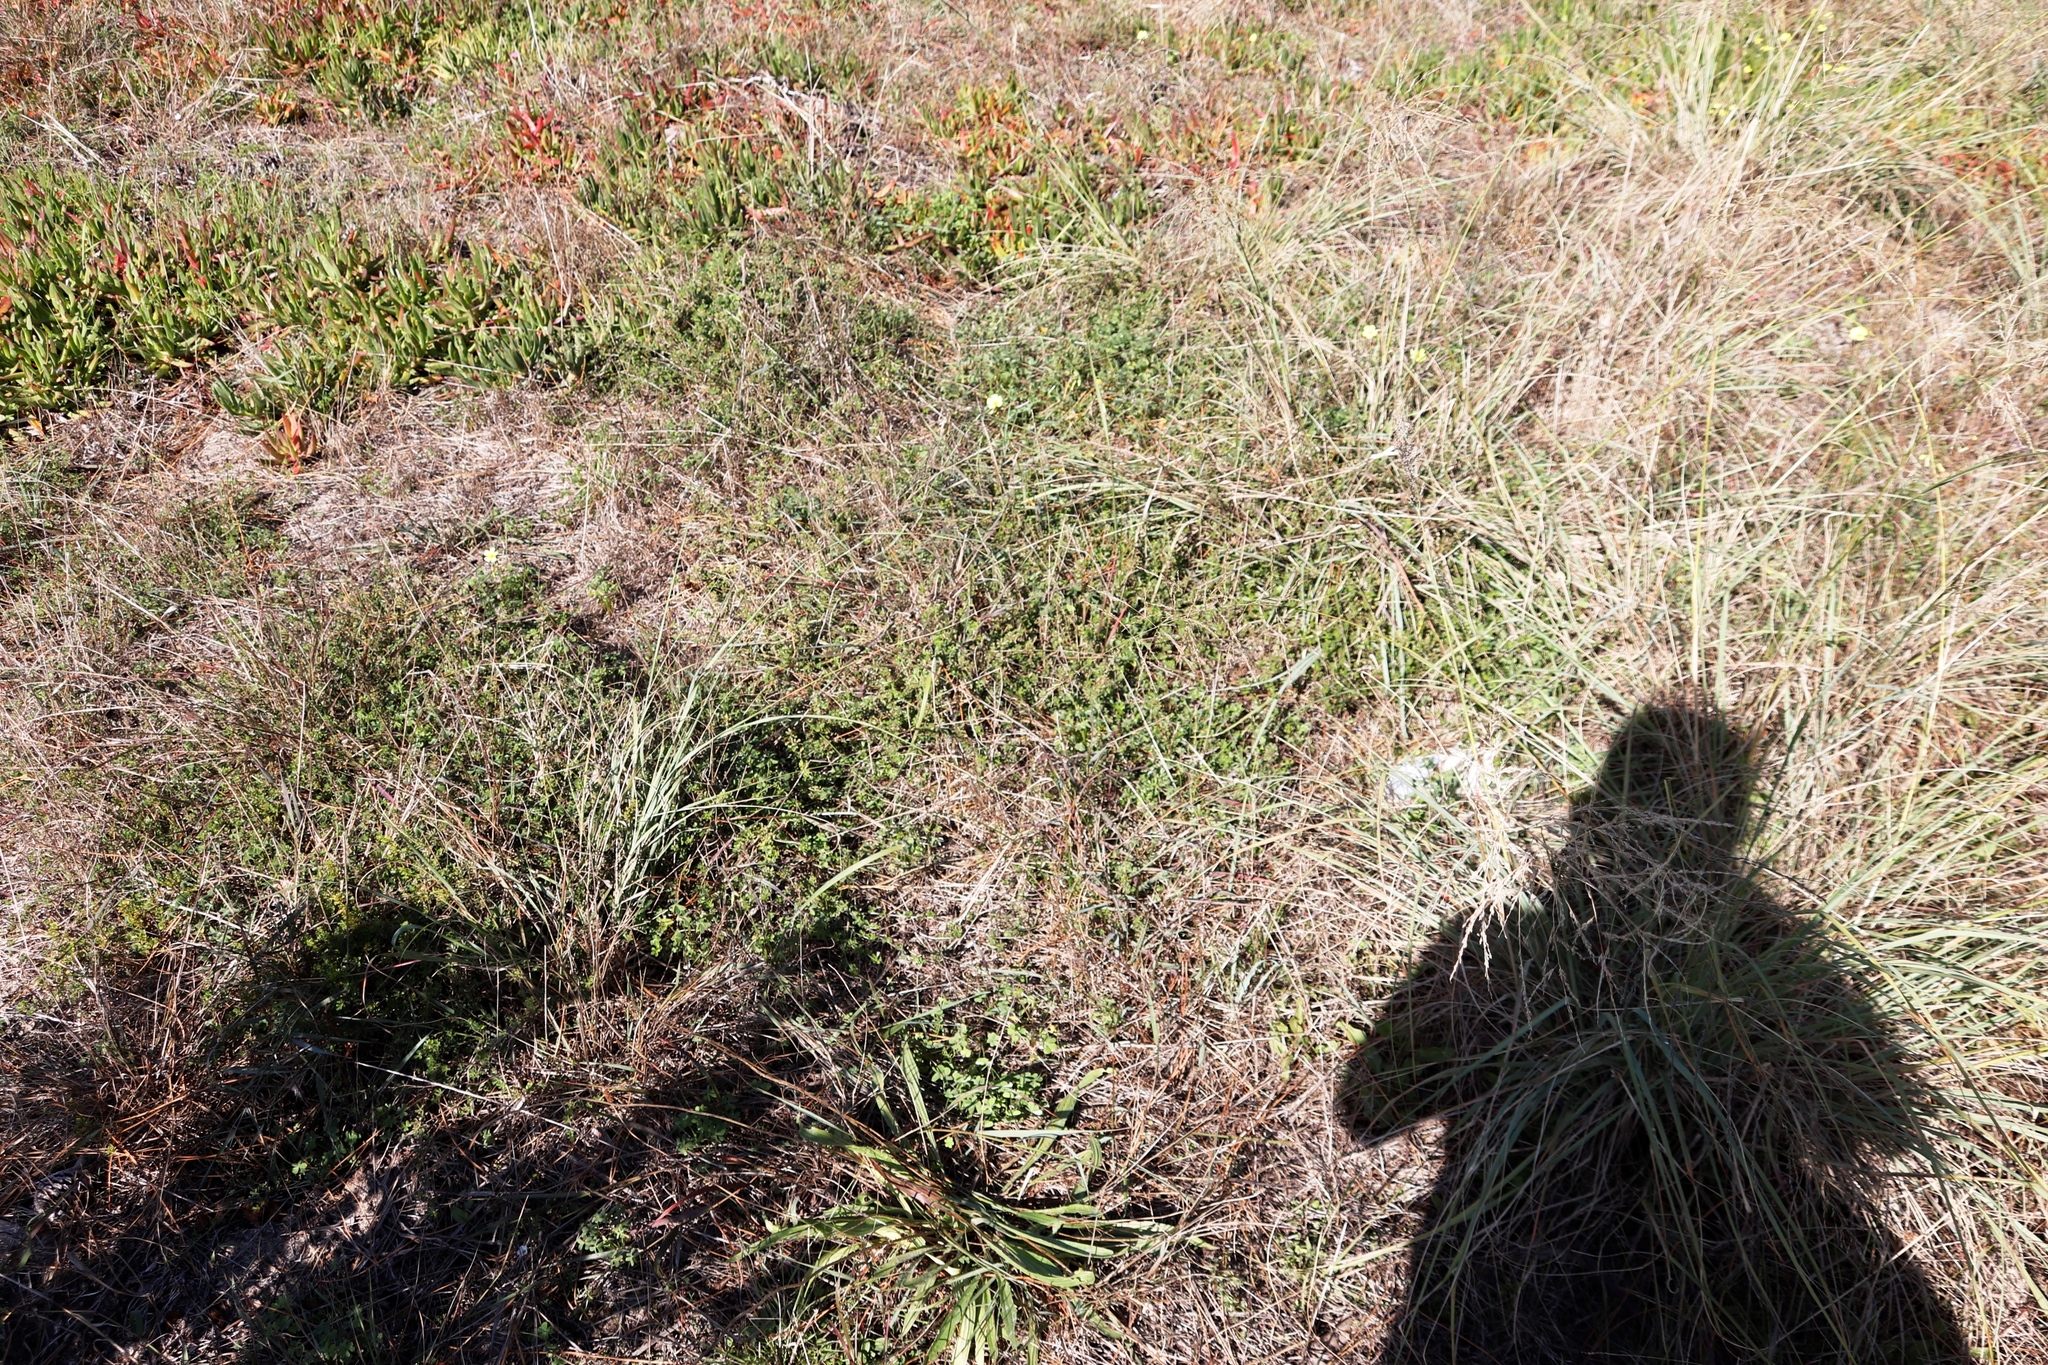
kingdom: Plantae
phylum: Tracheophyta
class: Magnoliopsida
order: Fabales
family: Fabaceae
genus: Psoralea
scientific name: Psoralea
